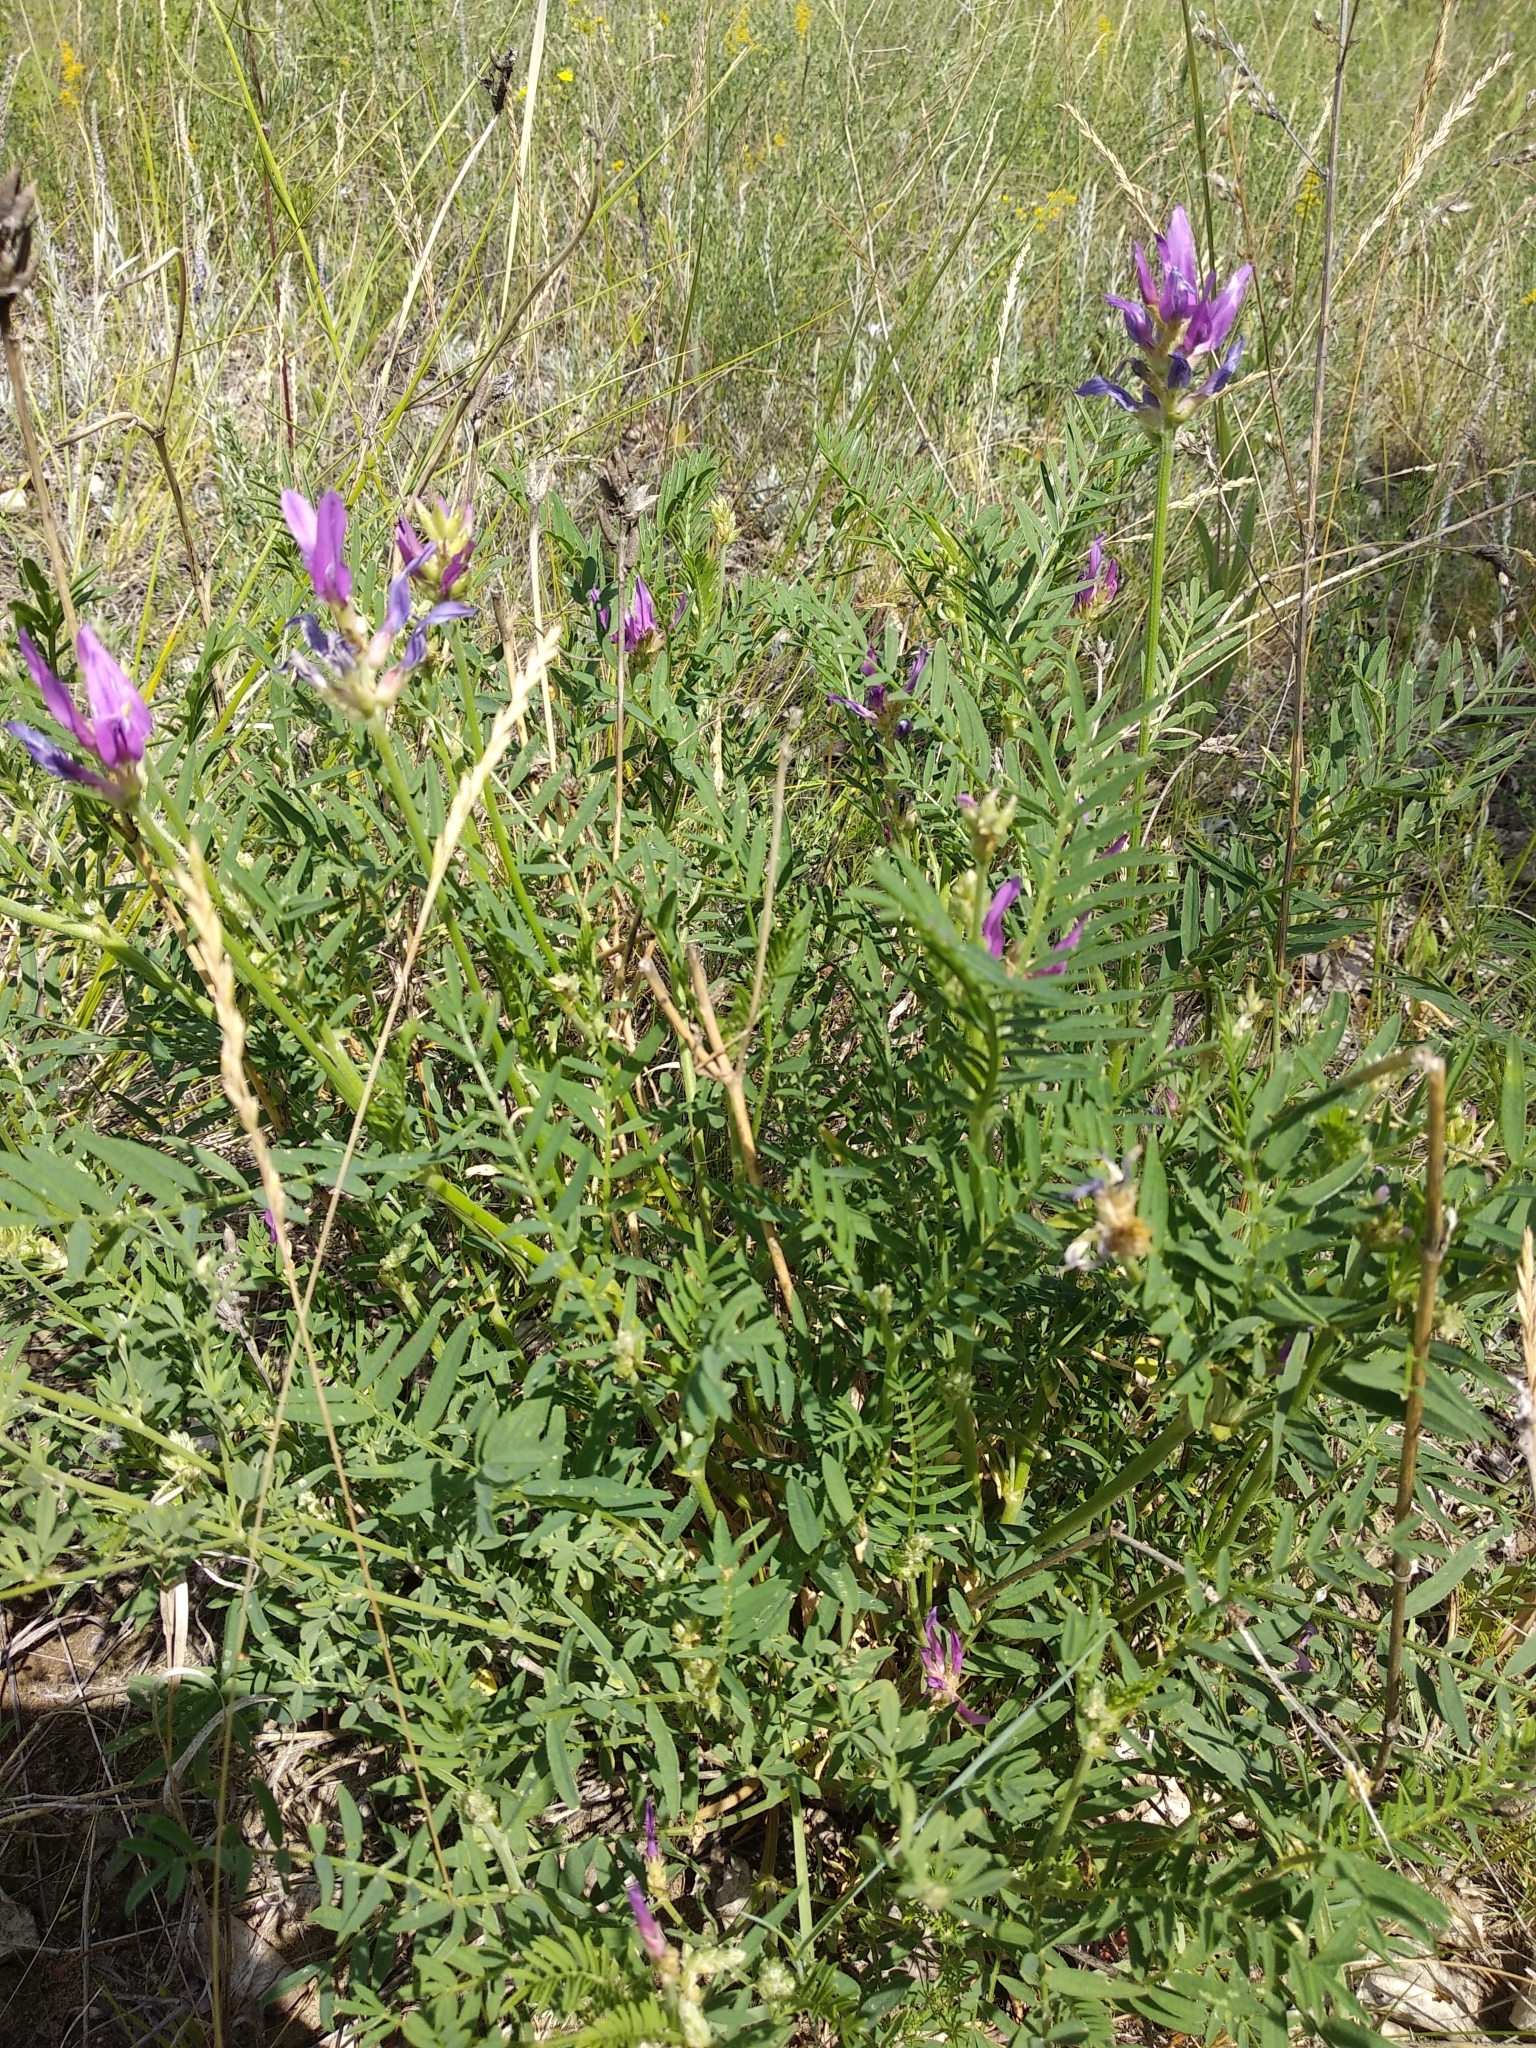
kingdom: Plantae
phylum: Tracheophyta
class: Magnoliopsida
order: Fabales
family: Fabaceae
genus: Astragalus
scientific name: Astragalus onobrychis
